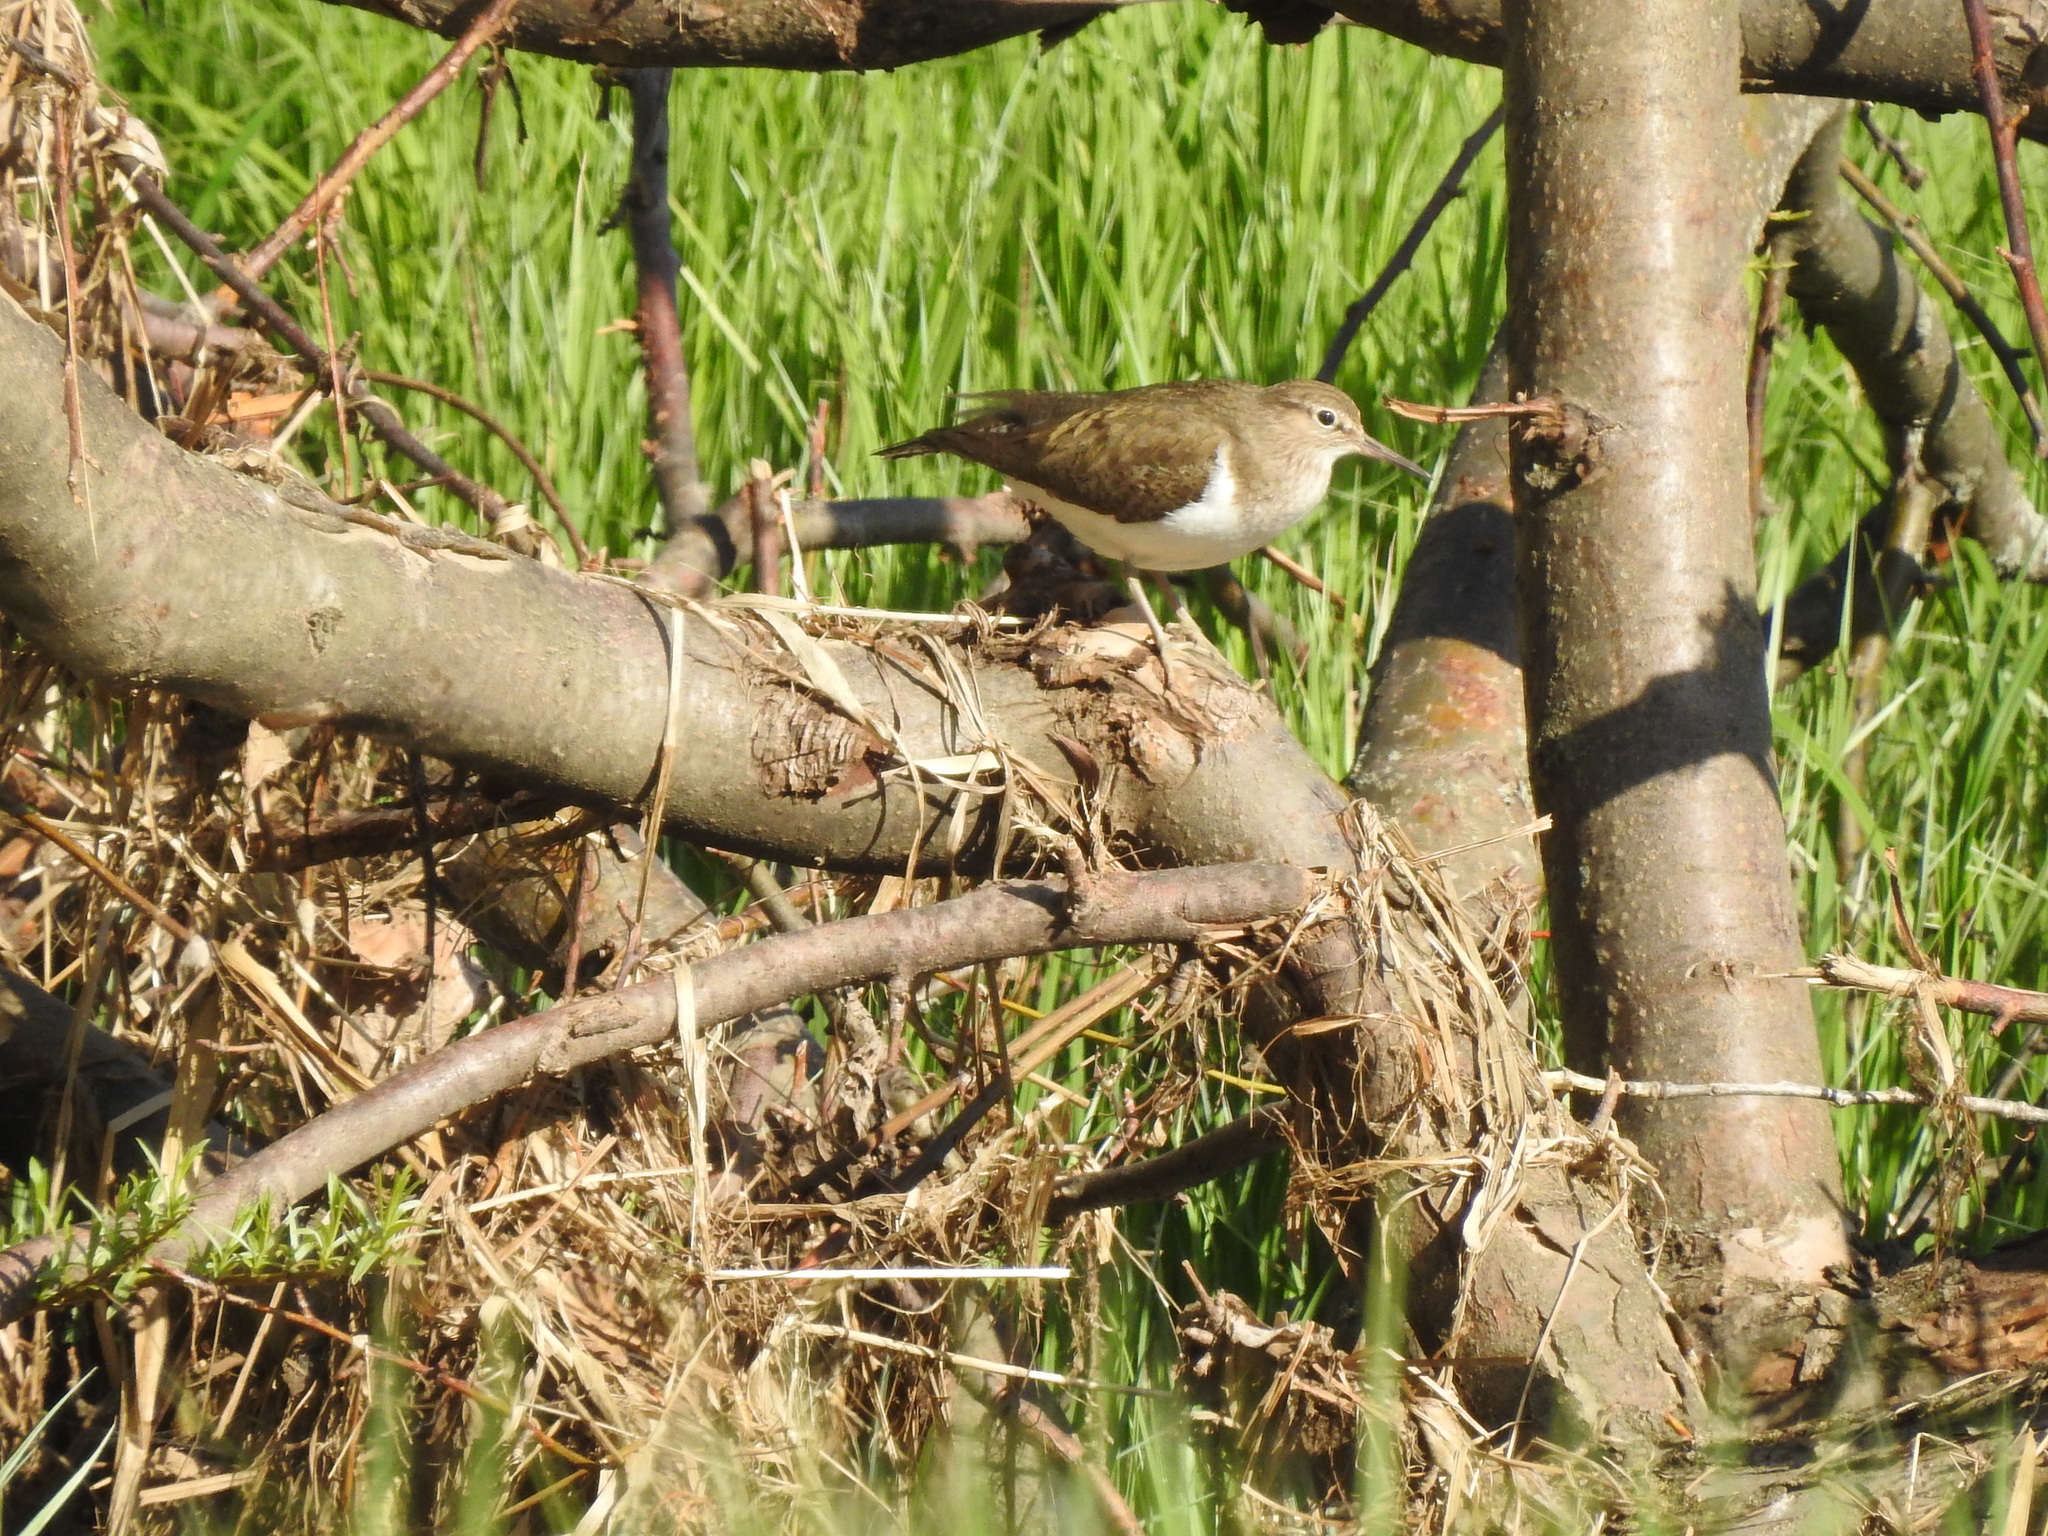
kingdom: Animalia
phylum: Chordata
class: Aves
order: Charadriiformes
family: Scolopacidae
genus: Actitis
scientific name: Actitis hypoleucos
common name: Common sandpiper
